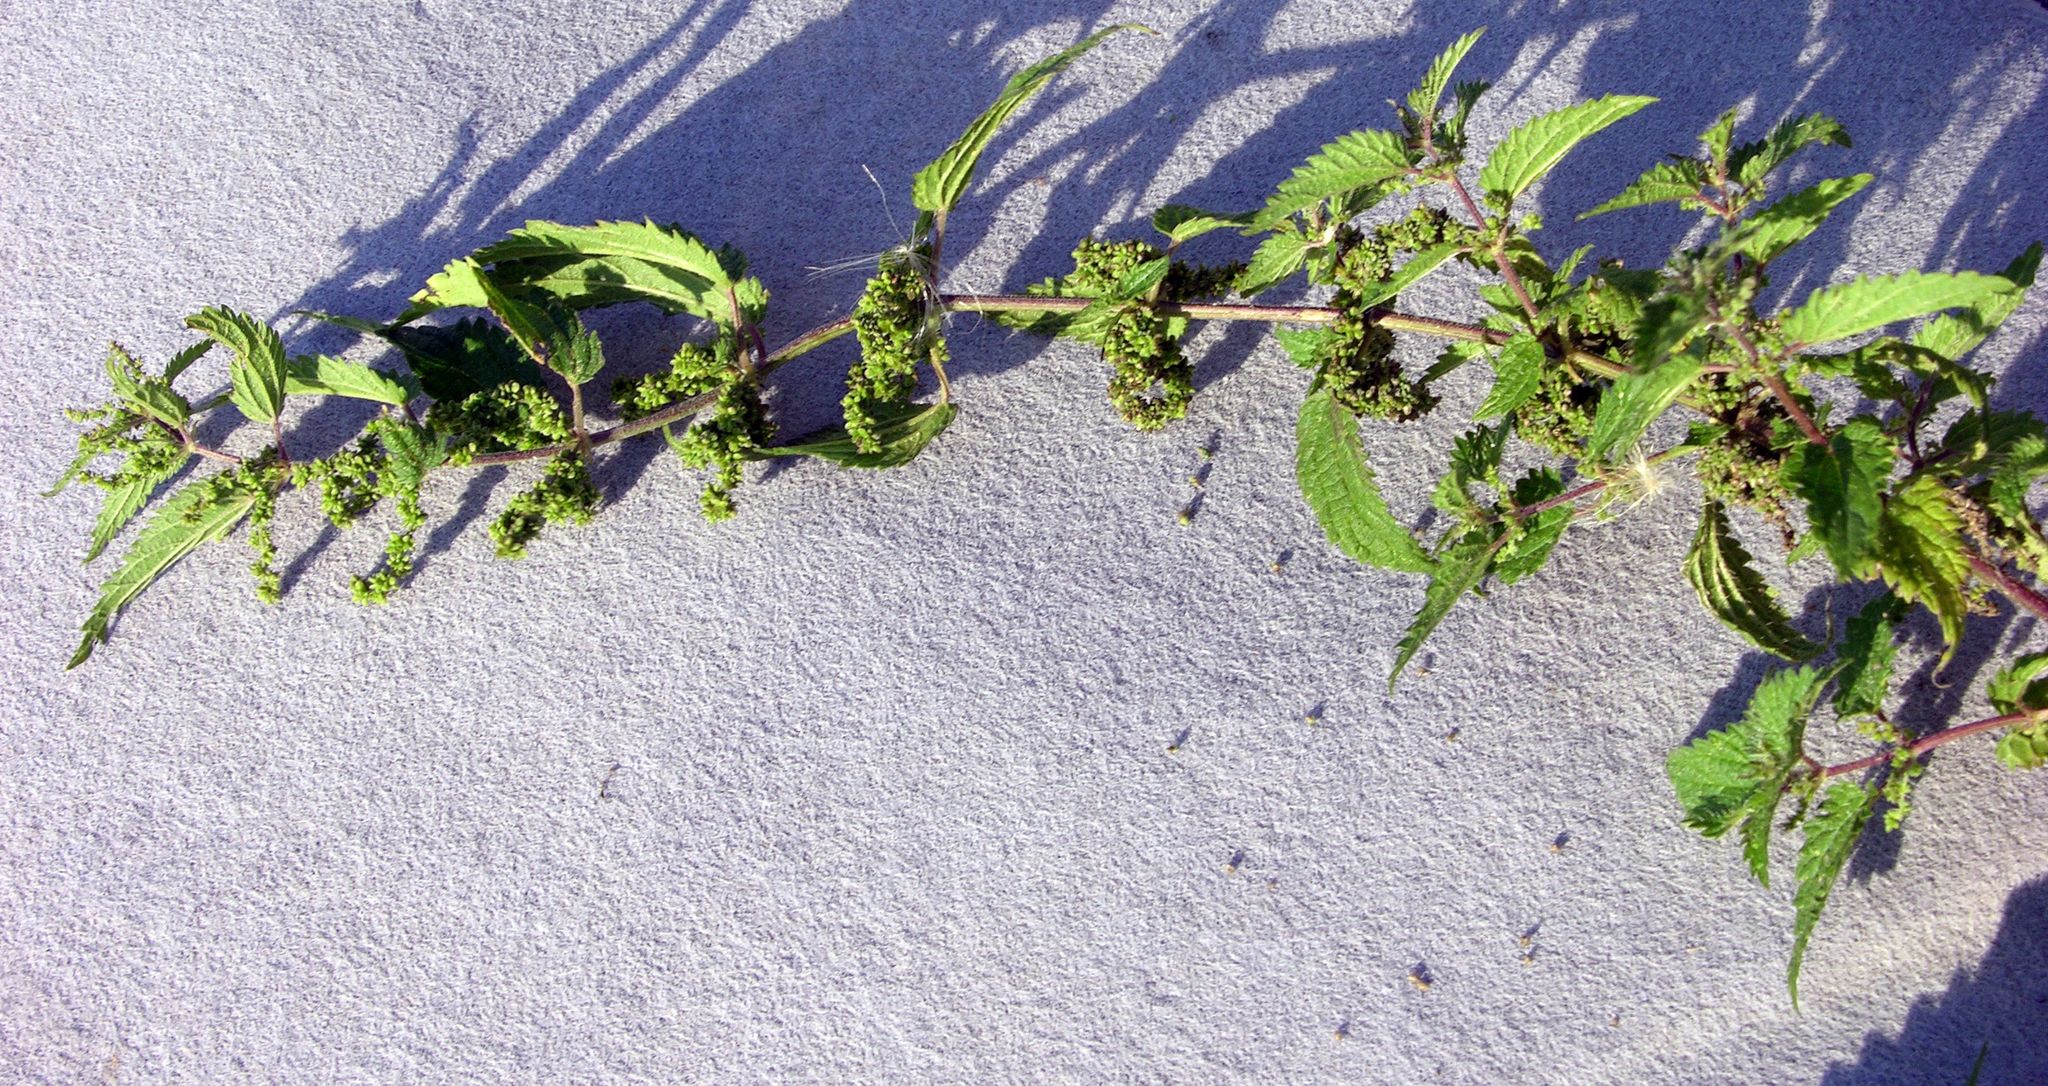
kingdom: Plantae
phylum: Tracheophyta
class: Magnoliopsida
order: Rosales
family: Urticaceae
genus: Urtica
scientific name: Urtica dioica
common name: Common nettle
